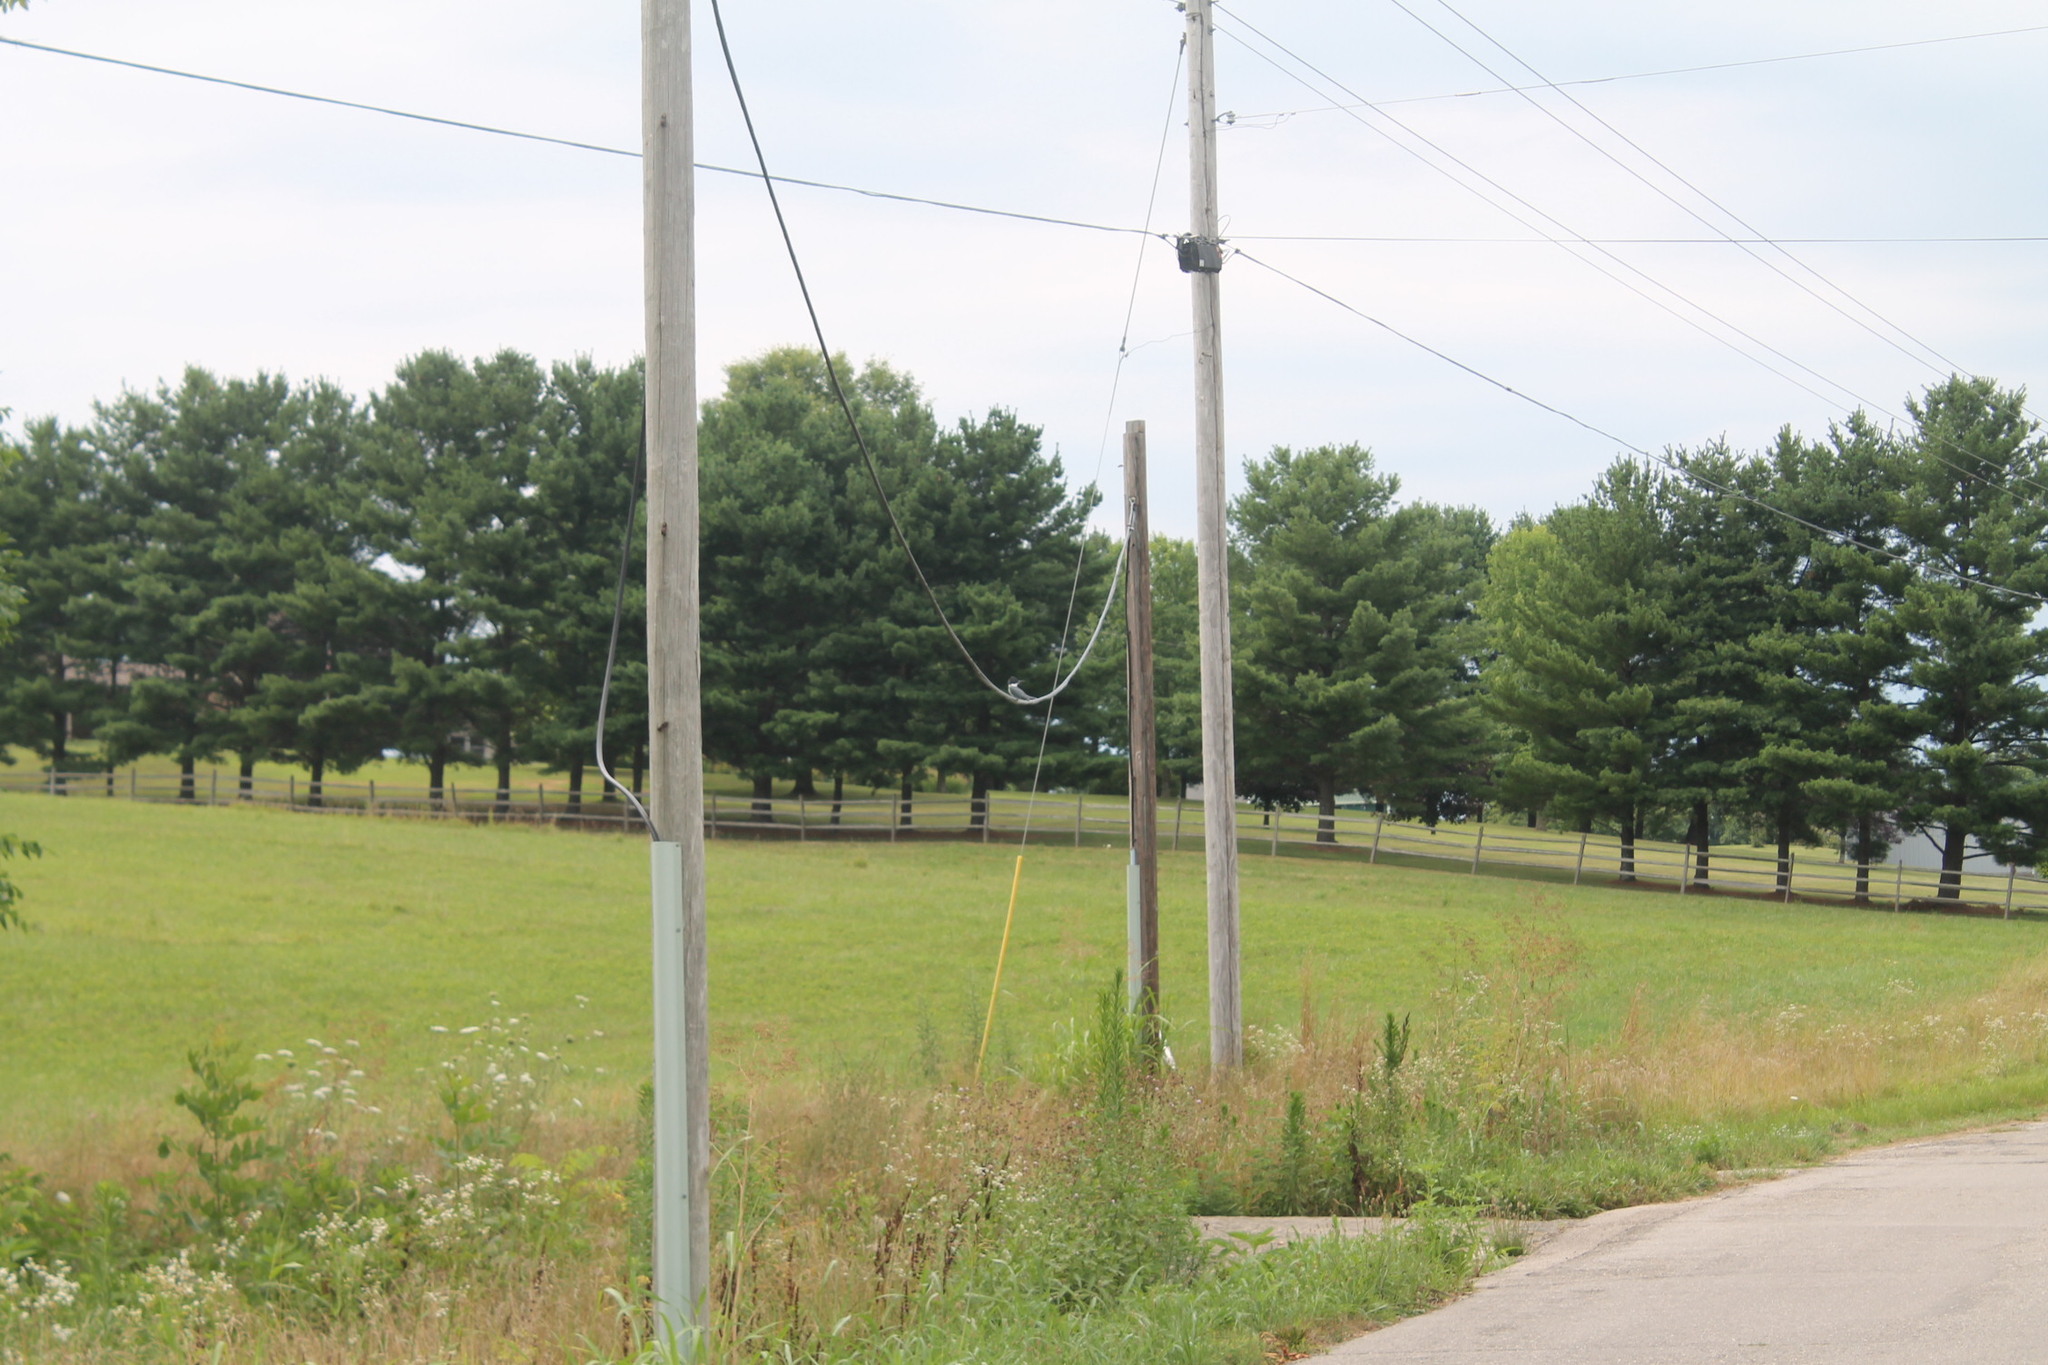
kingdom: Animalia
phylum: Chordata
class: Aves
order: Coraciiformes
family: Alcedinidae
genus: Megaceryle
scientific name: Megaceryle alcyon
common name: Belted kingfisher
